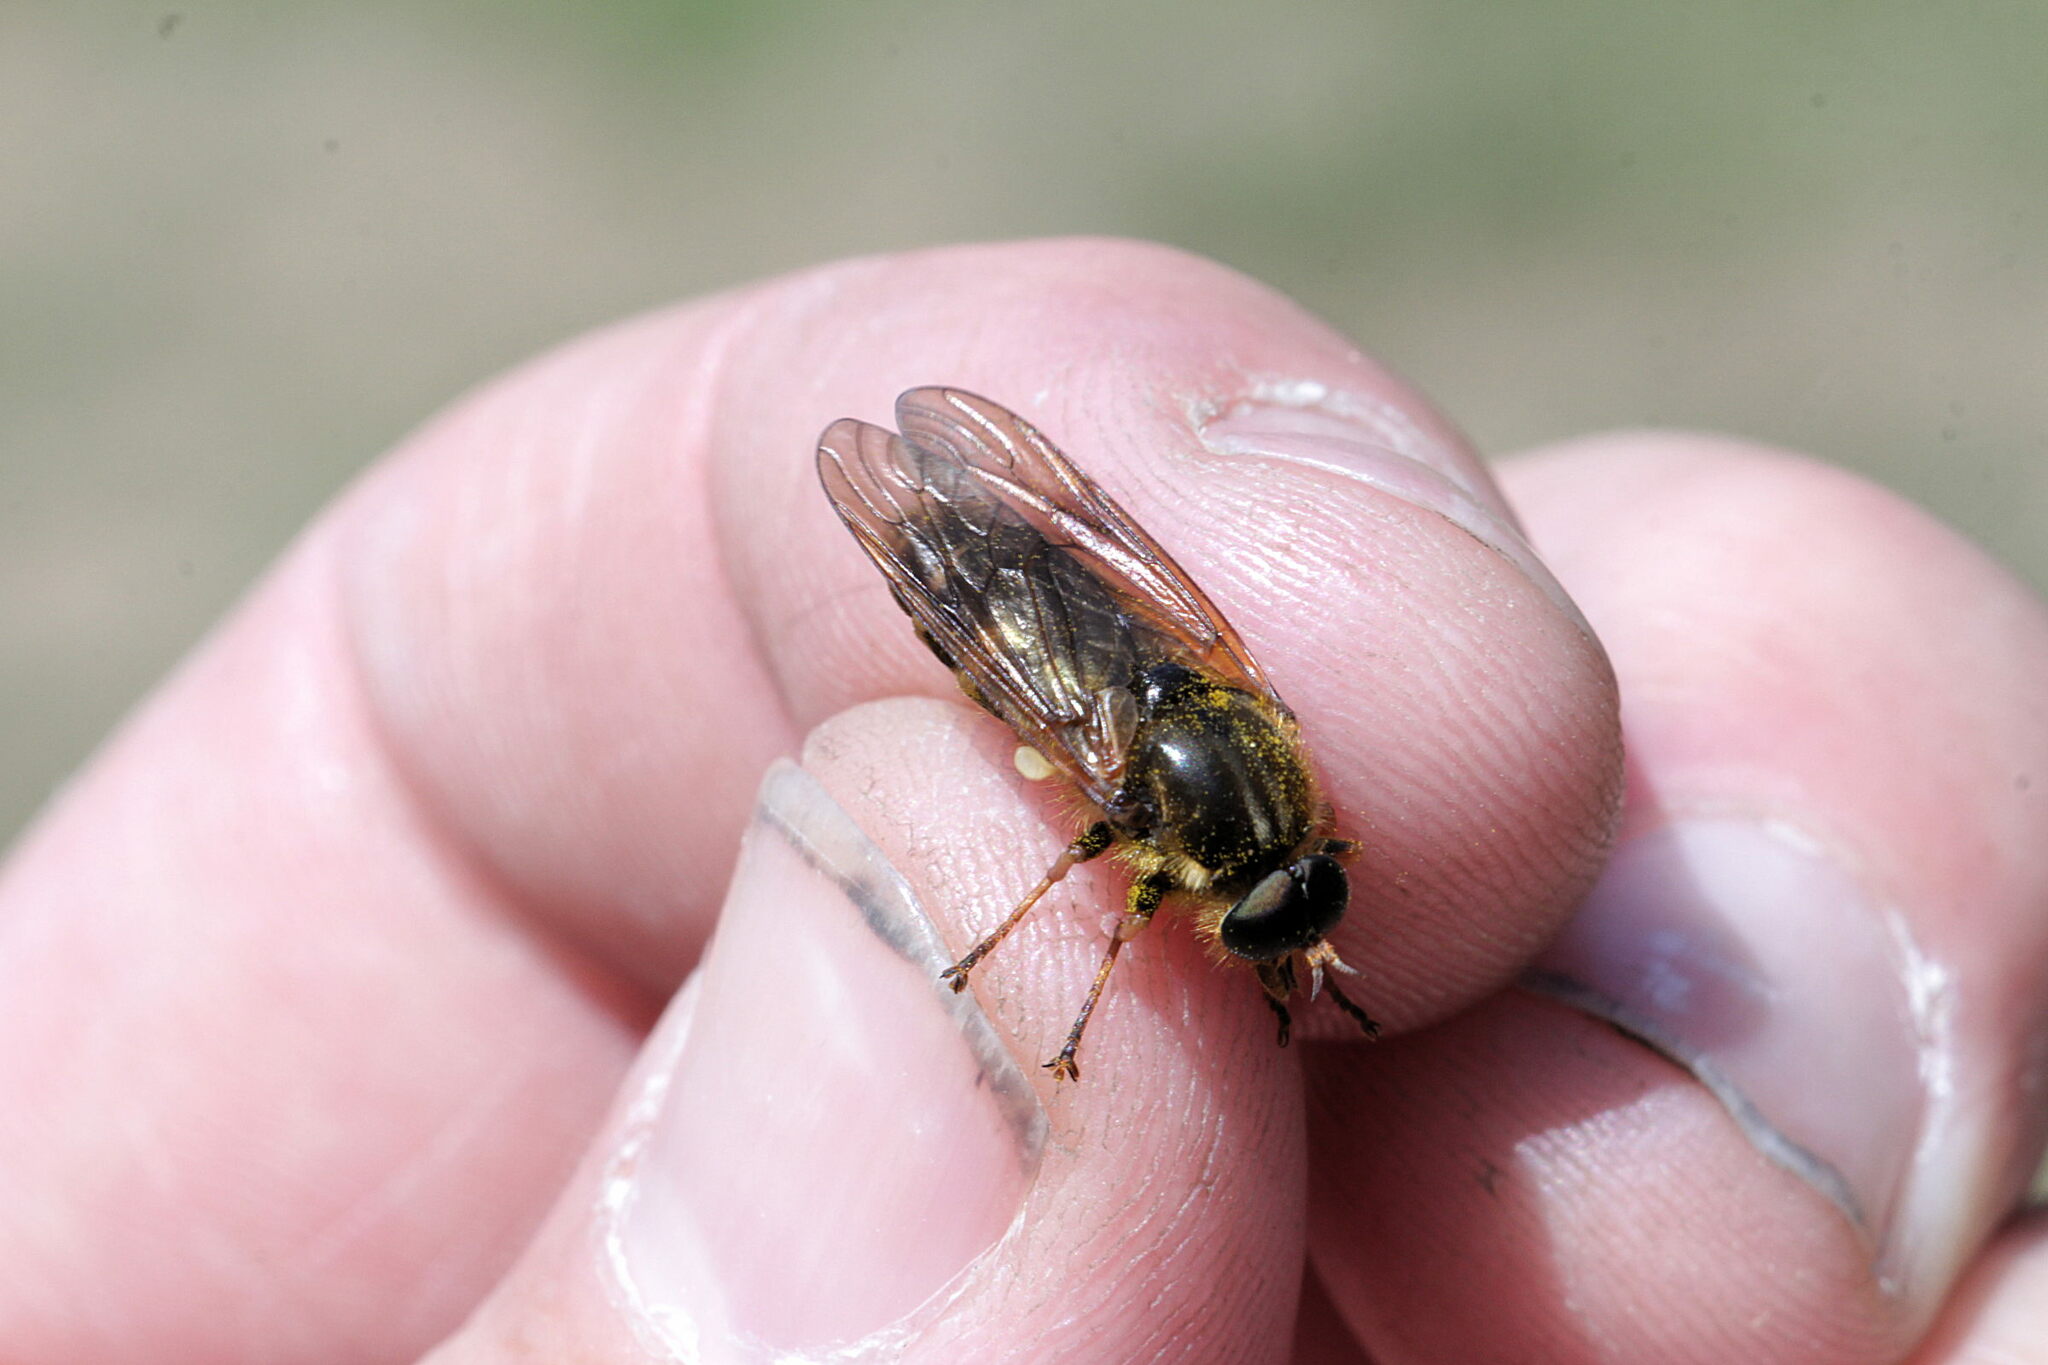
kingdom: Animalia
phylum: Arthropoda
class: Insecta
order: Diptera
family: Xylophagidae
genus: Coenomyia
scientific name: Coenomyia ferruginea
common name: Stink fly
